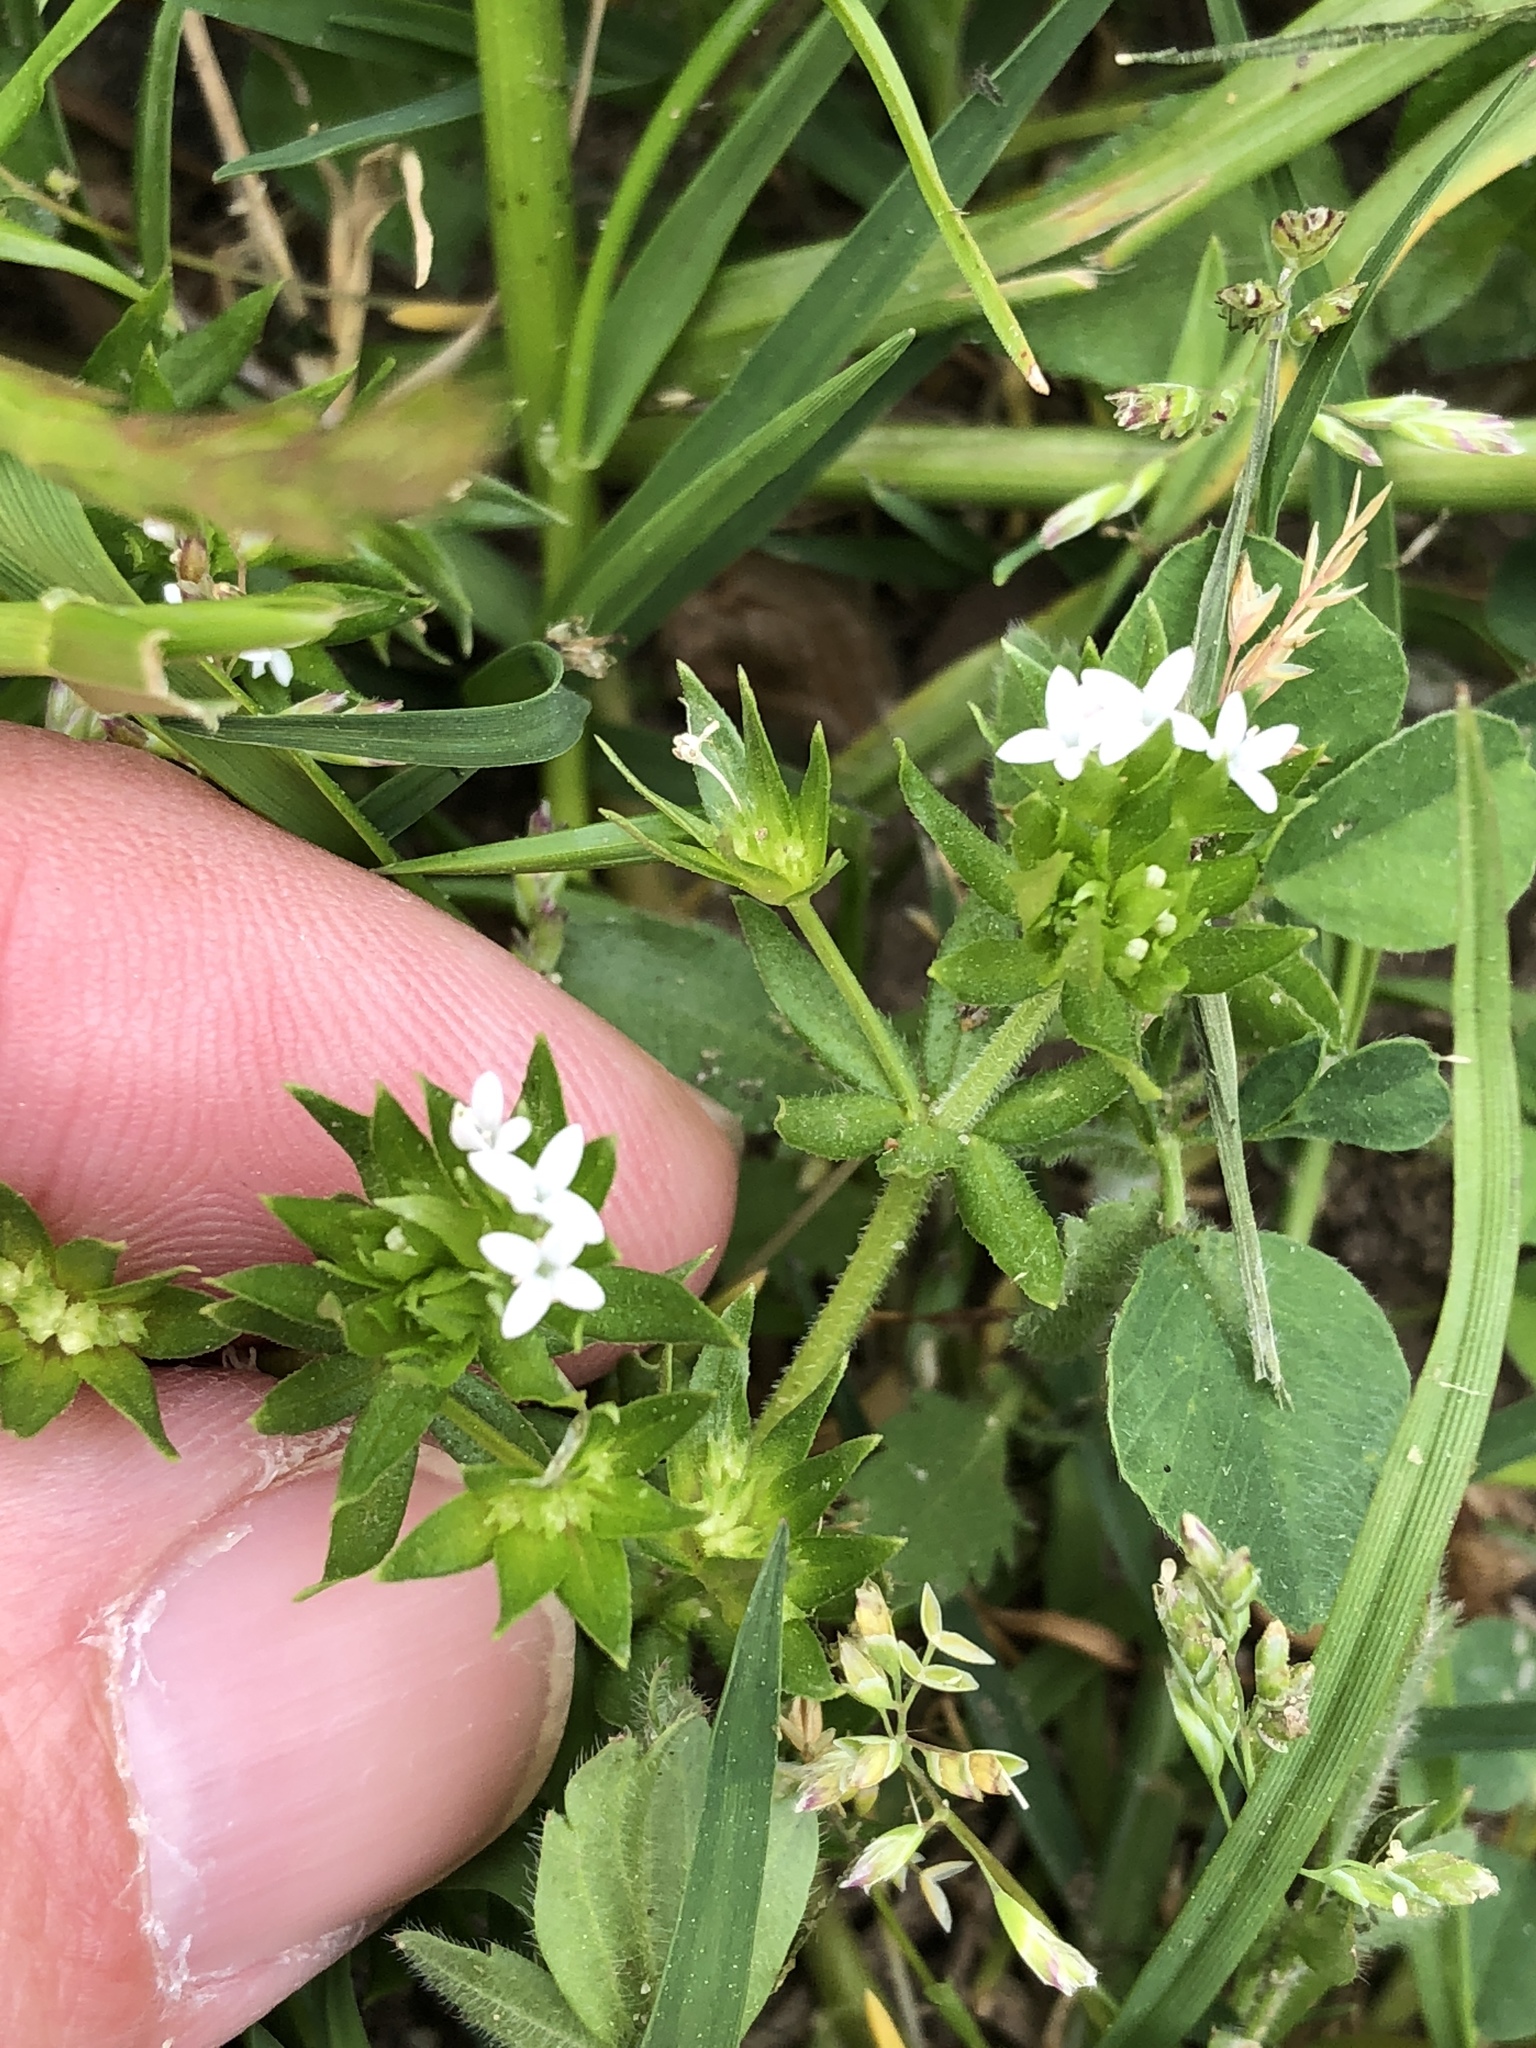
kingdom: Plantae
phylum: Tracheophyta
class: Magnoliopsida
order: Gentianales
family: Rubiaceae
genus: Sherardia
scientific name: Sherardia arvensis
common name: Field madder
